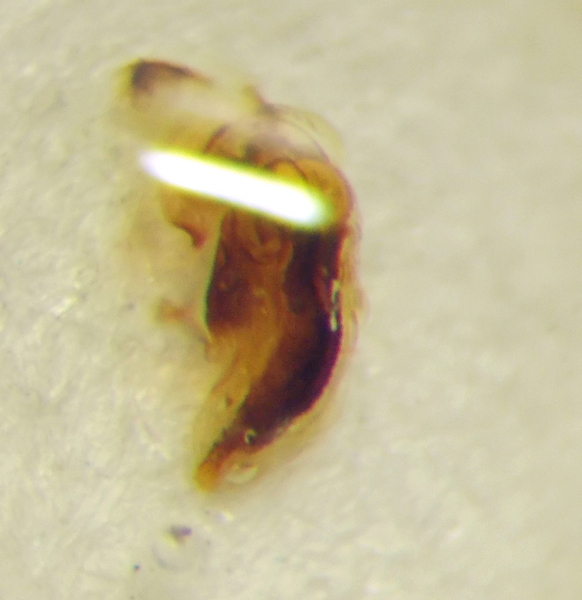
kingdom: Animalia
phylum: Arthropoda
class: Insecta
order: Hemiptera
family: Scutelleridae
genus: Phimodera
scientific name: Phimodera humeralis
